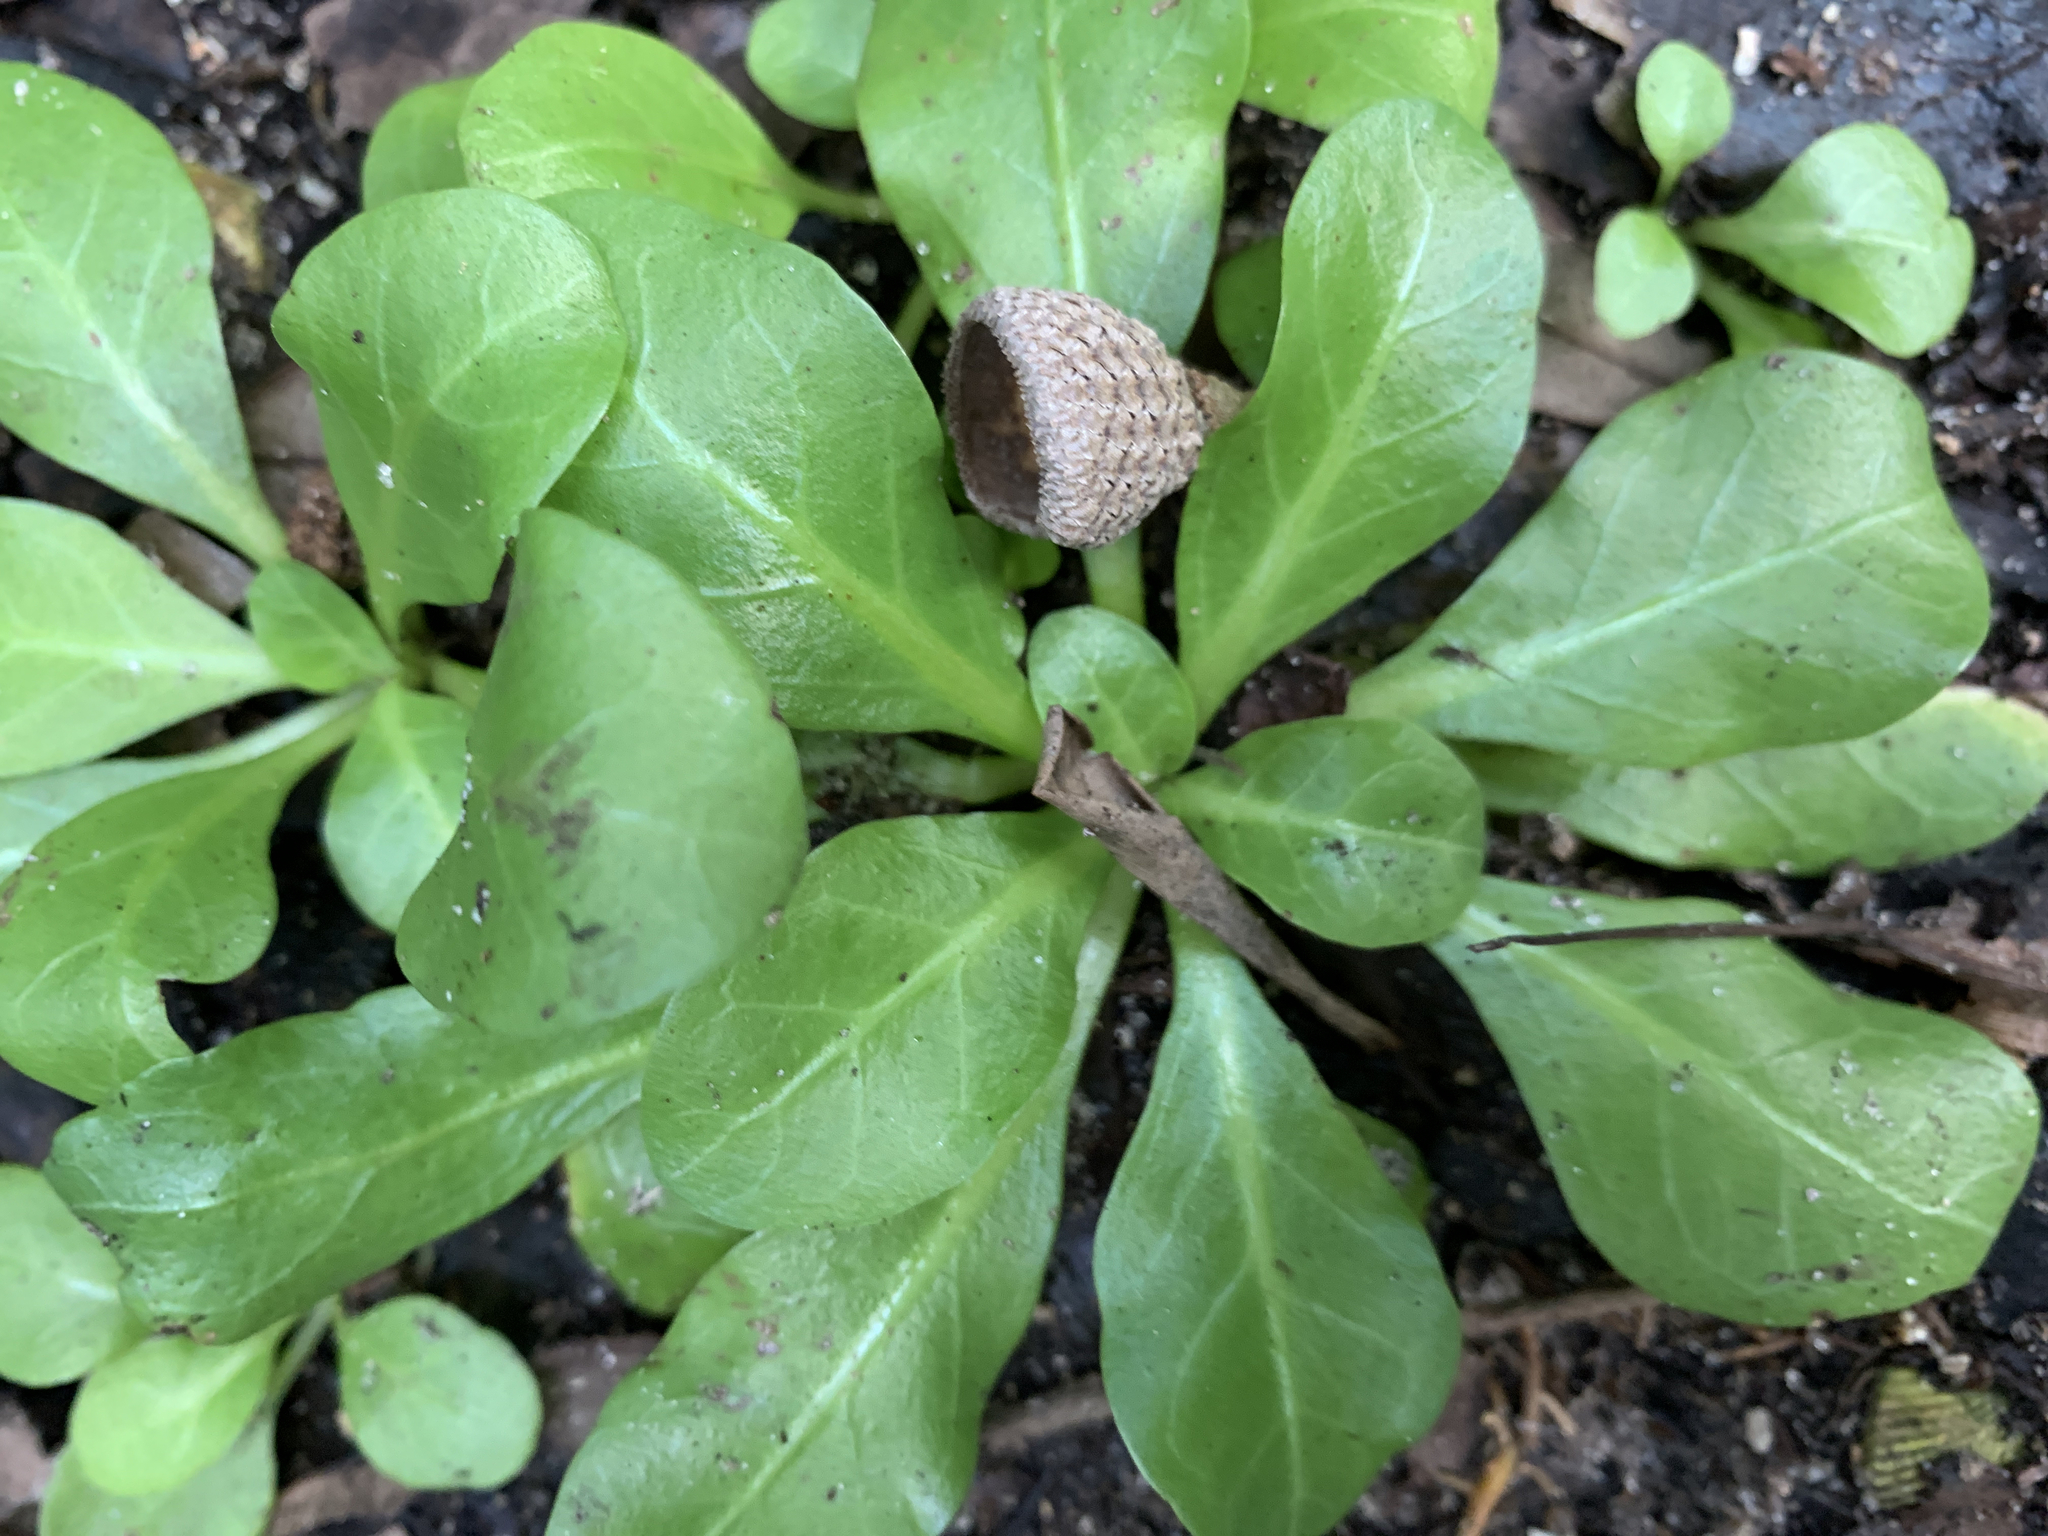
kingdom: Plantae
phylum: Tracheophyta
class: Magnoliopsida
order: Ericales
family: Primulaceae
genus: Samolus
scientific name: Samolus parviflorus
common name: False water pimpernel
